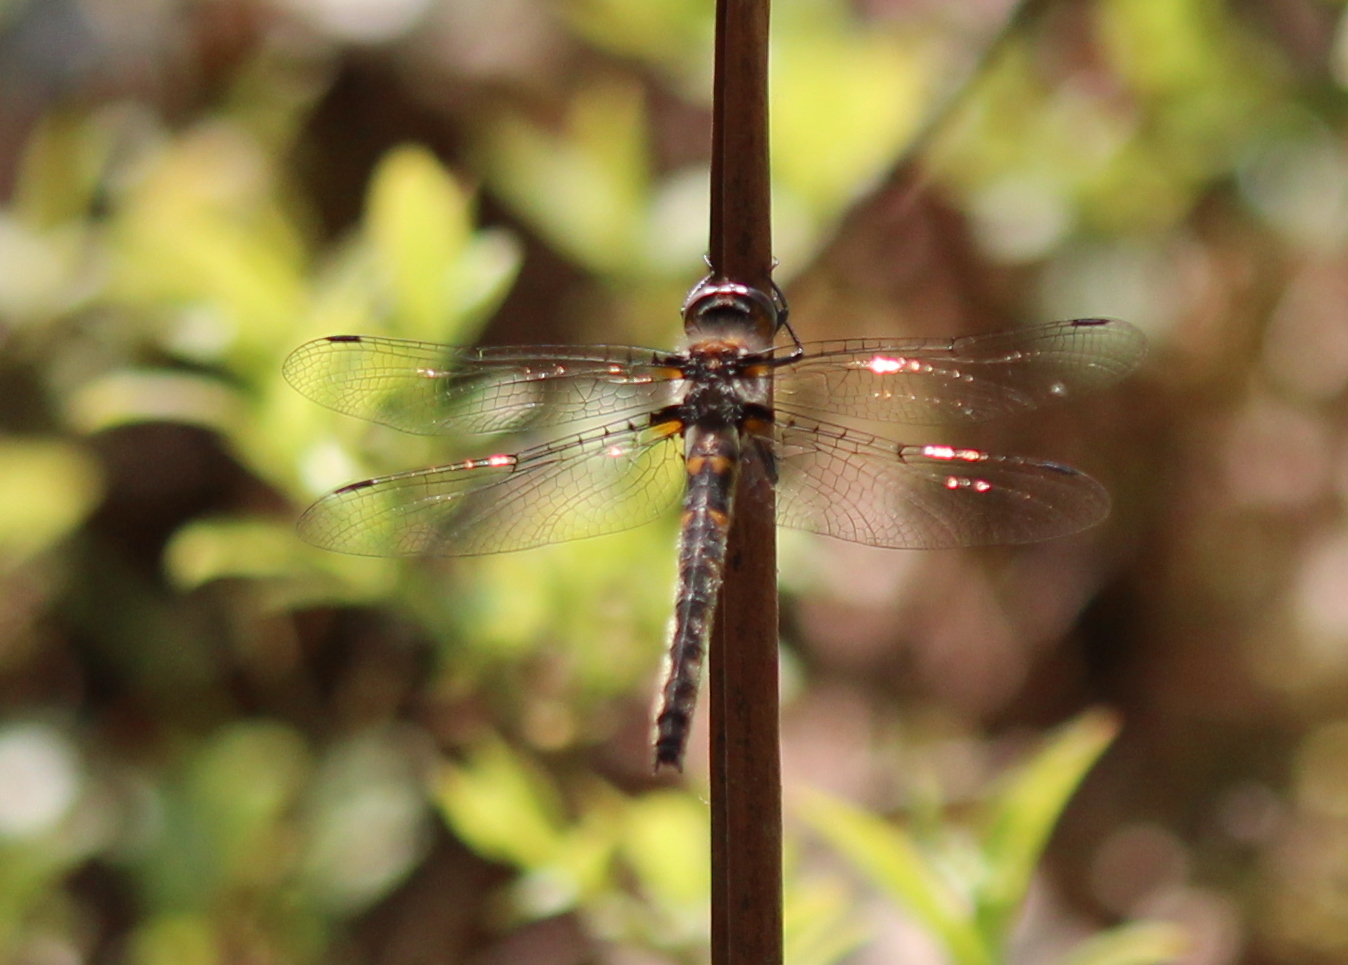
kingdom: Animalia
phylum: Arthropoda
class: Insecta
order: Odonata
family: Corduliidae
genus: Helocordulia
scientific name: Helocordulia uhleri
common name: Uhler's sundragon
